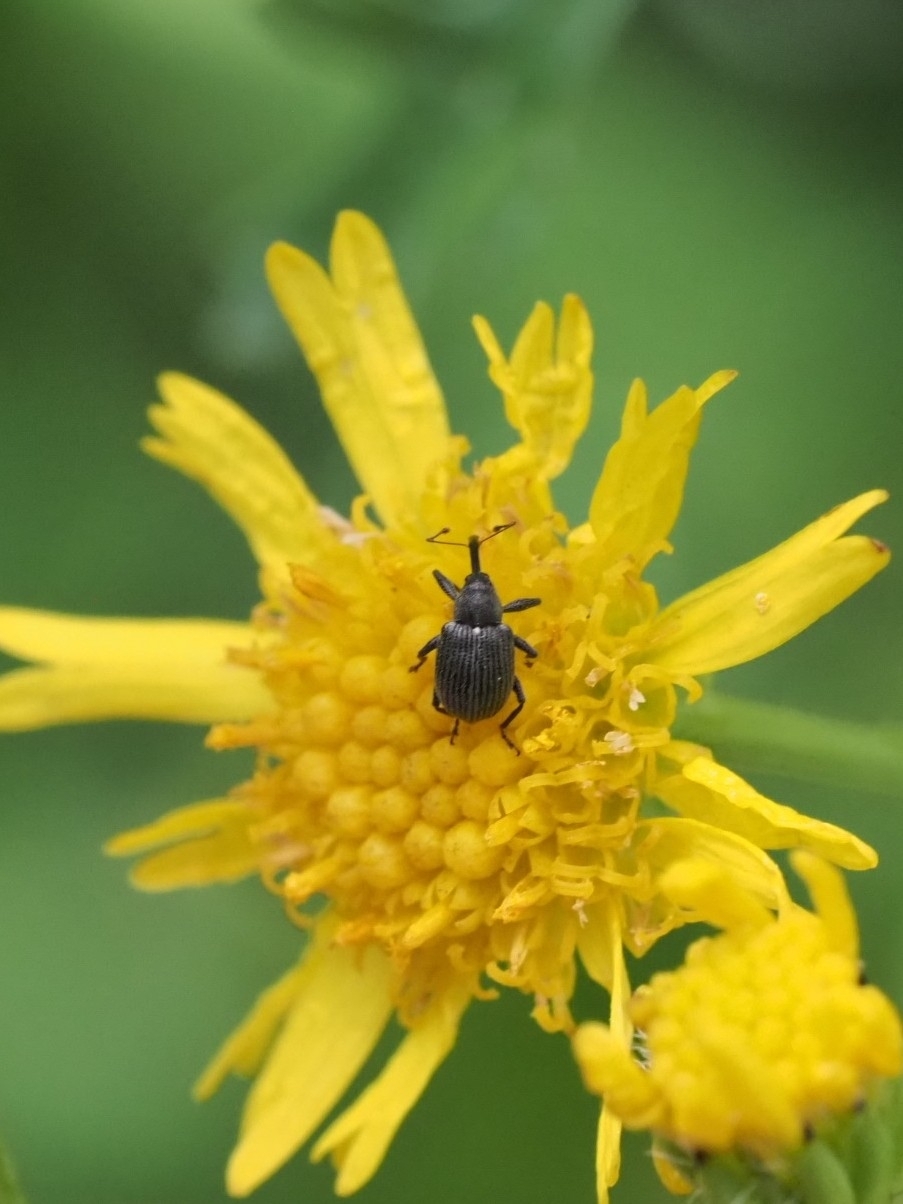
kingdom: Animalia
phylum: Arthropoda
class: Insecta
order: Coleoptera
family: Curculionidae
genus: Anthonomus
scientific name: Anthonomus rubi
